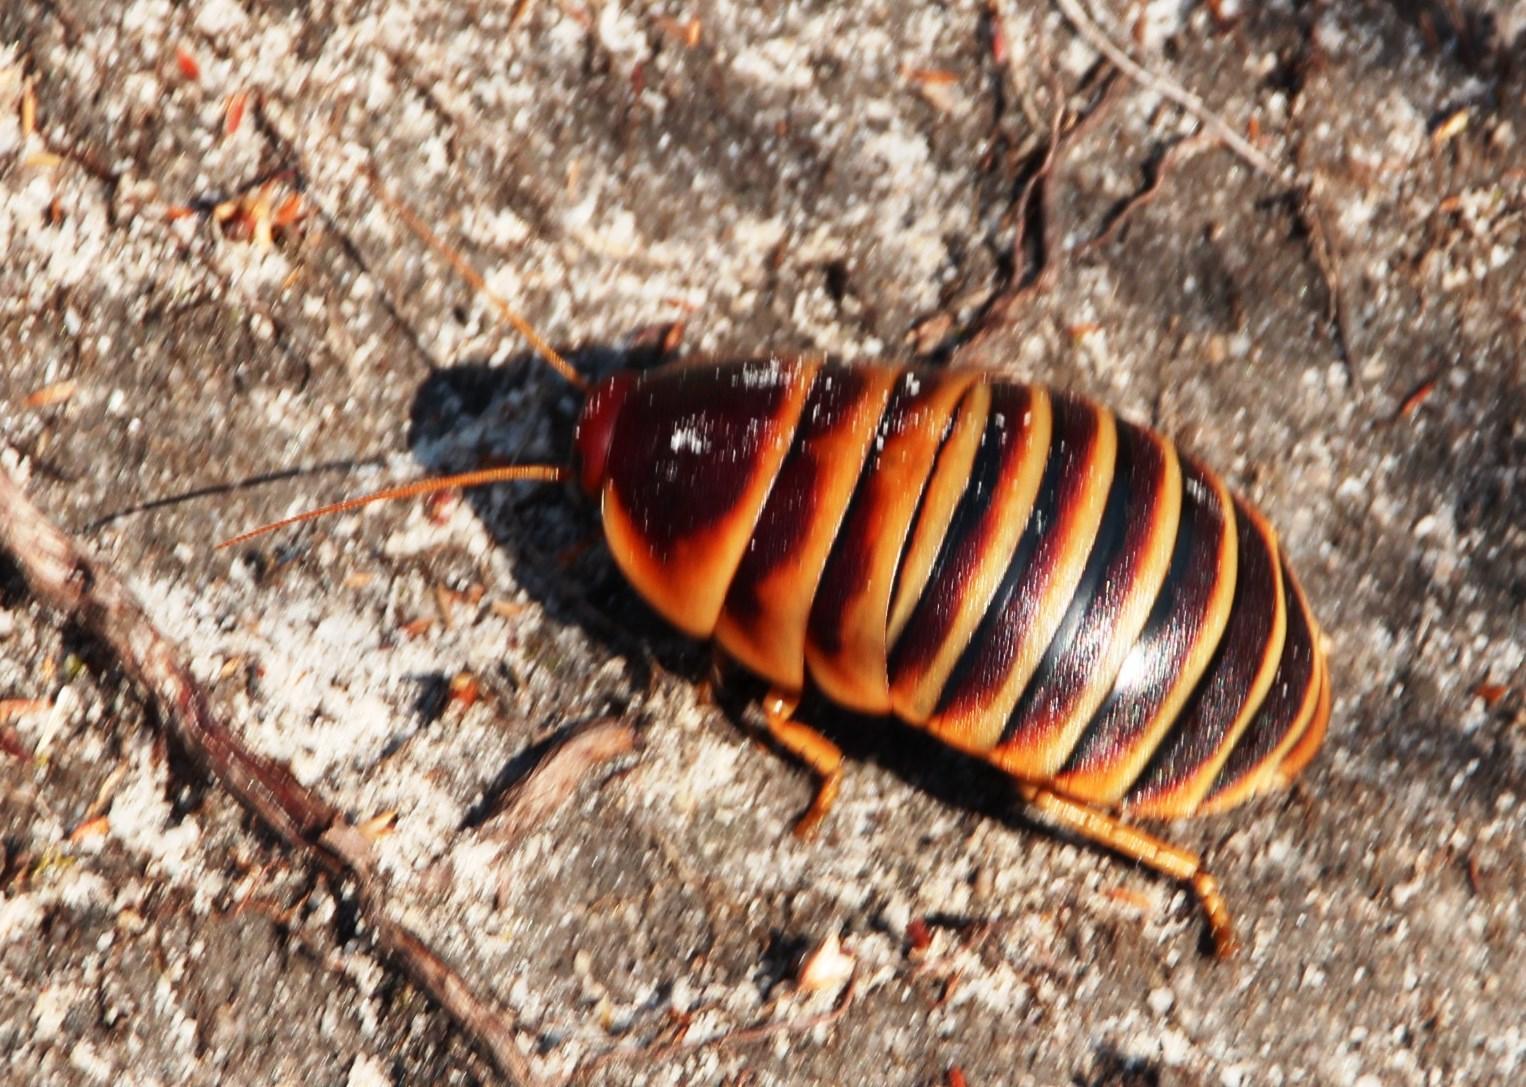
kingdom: Animalia
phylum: Arthropoda
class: Insecta
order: Blattodea
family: Blaberidae
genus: Aptera
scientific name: Aptera fusca
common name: Cape mountain cockroach
